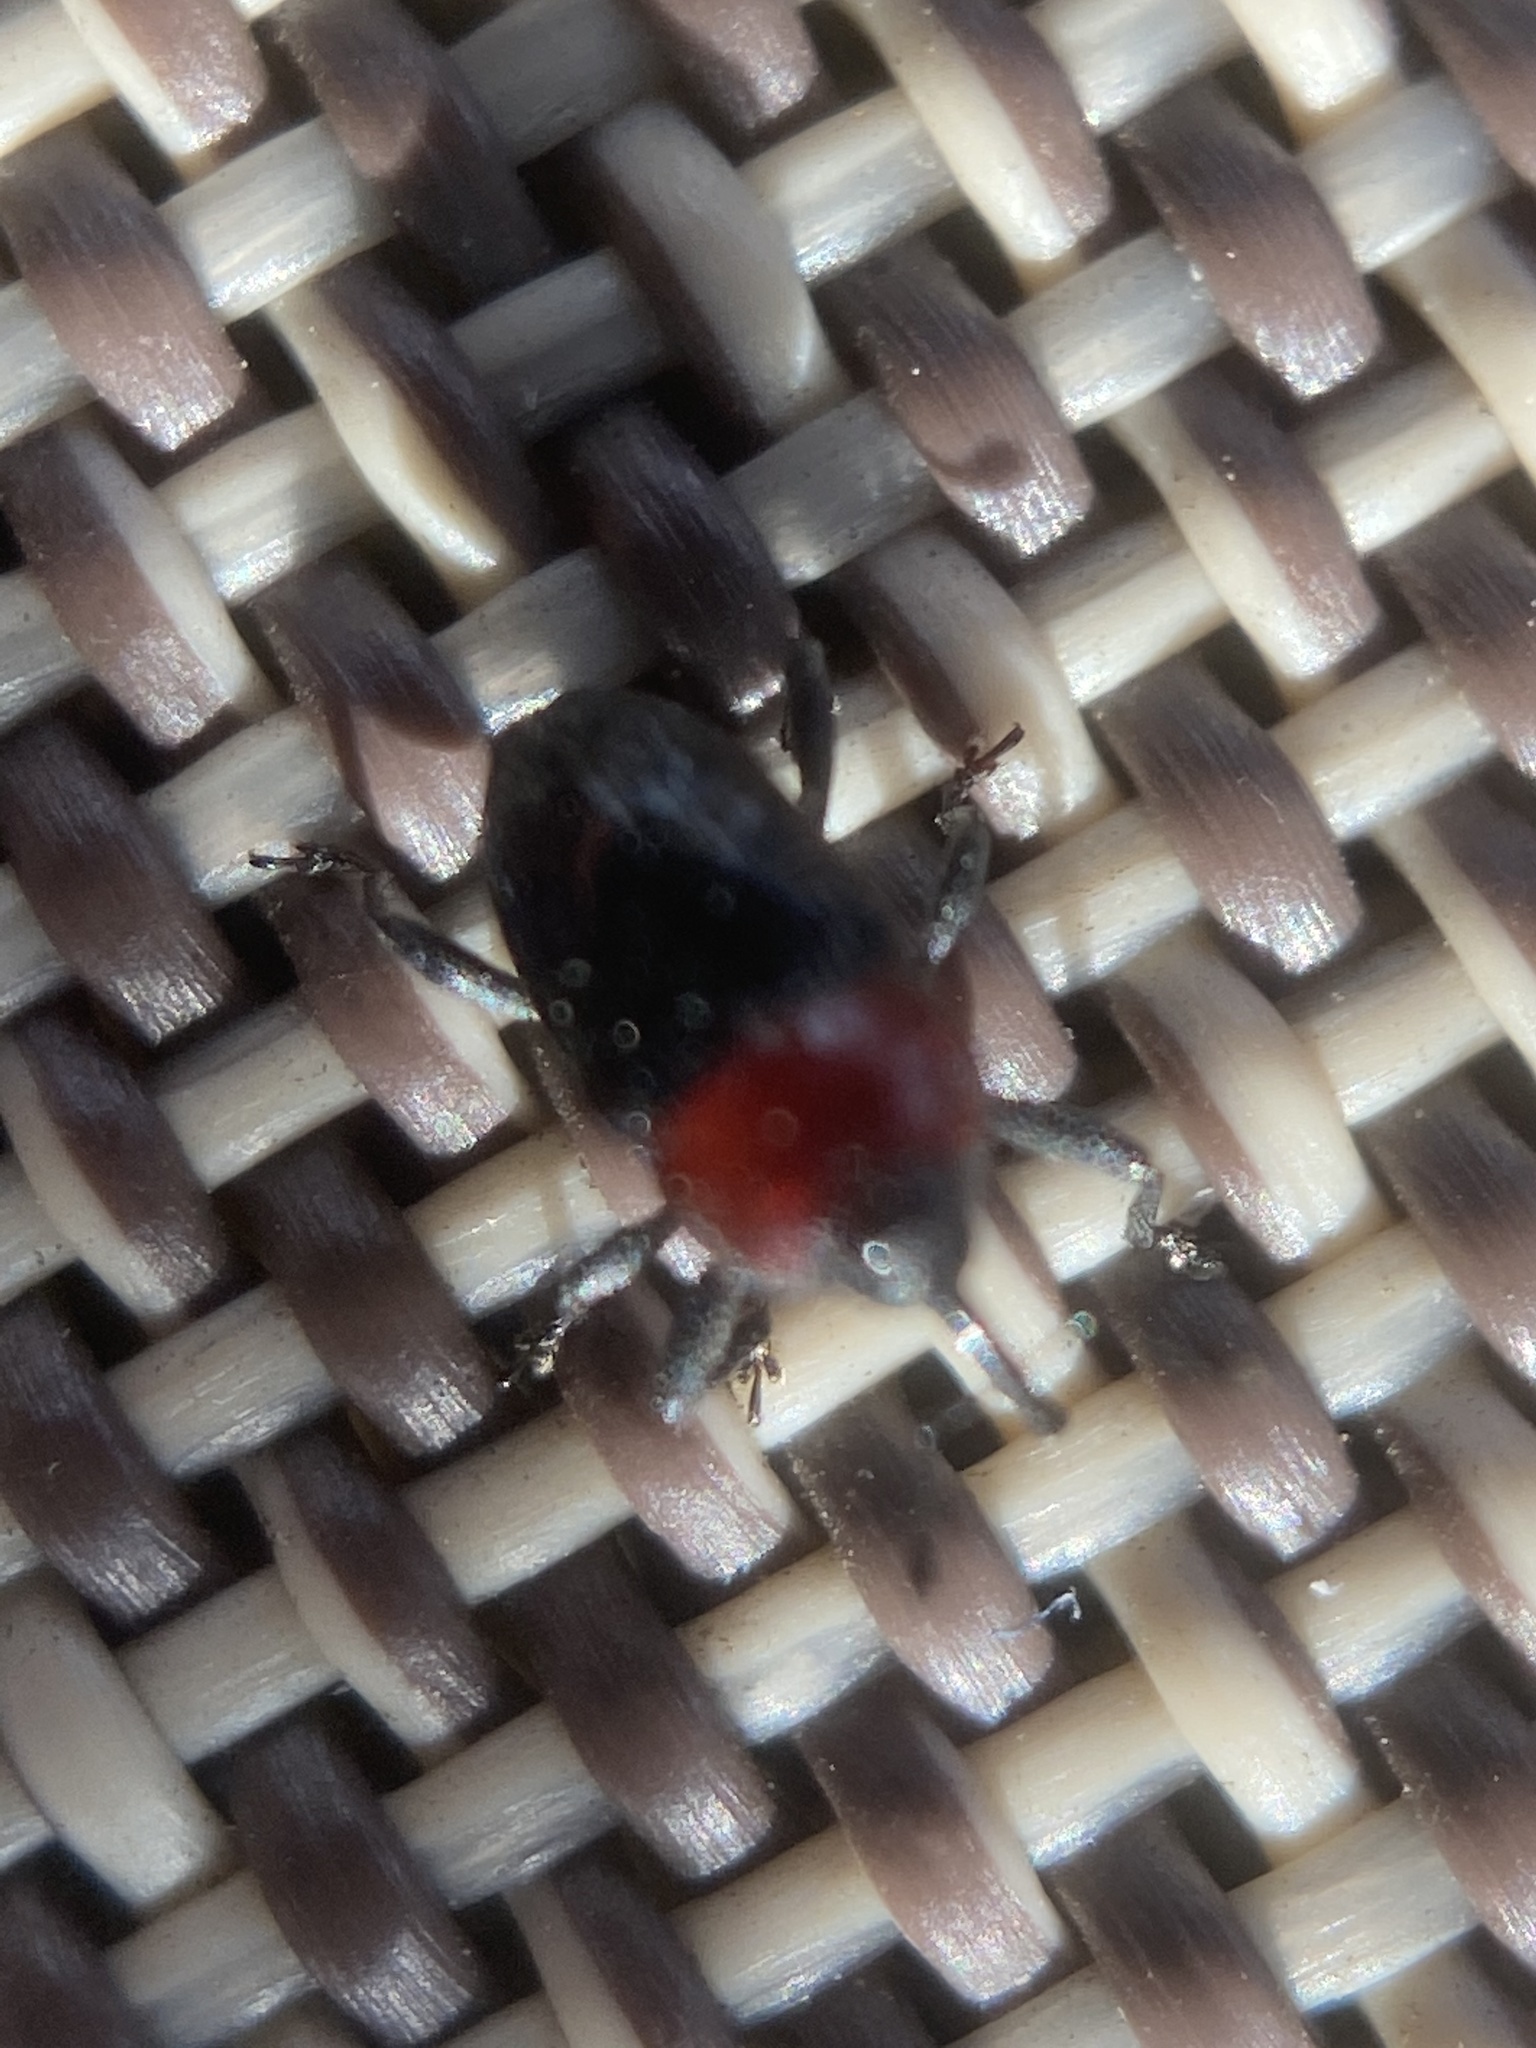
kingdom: Animalia
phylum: Arthropoda
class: Insecta
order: Coleoptera
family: Curculionidae
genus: Madarellus
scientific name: Madarellus undulatus
